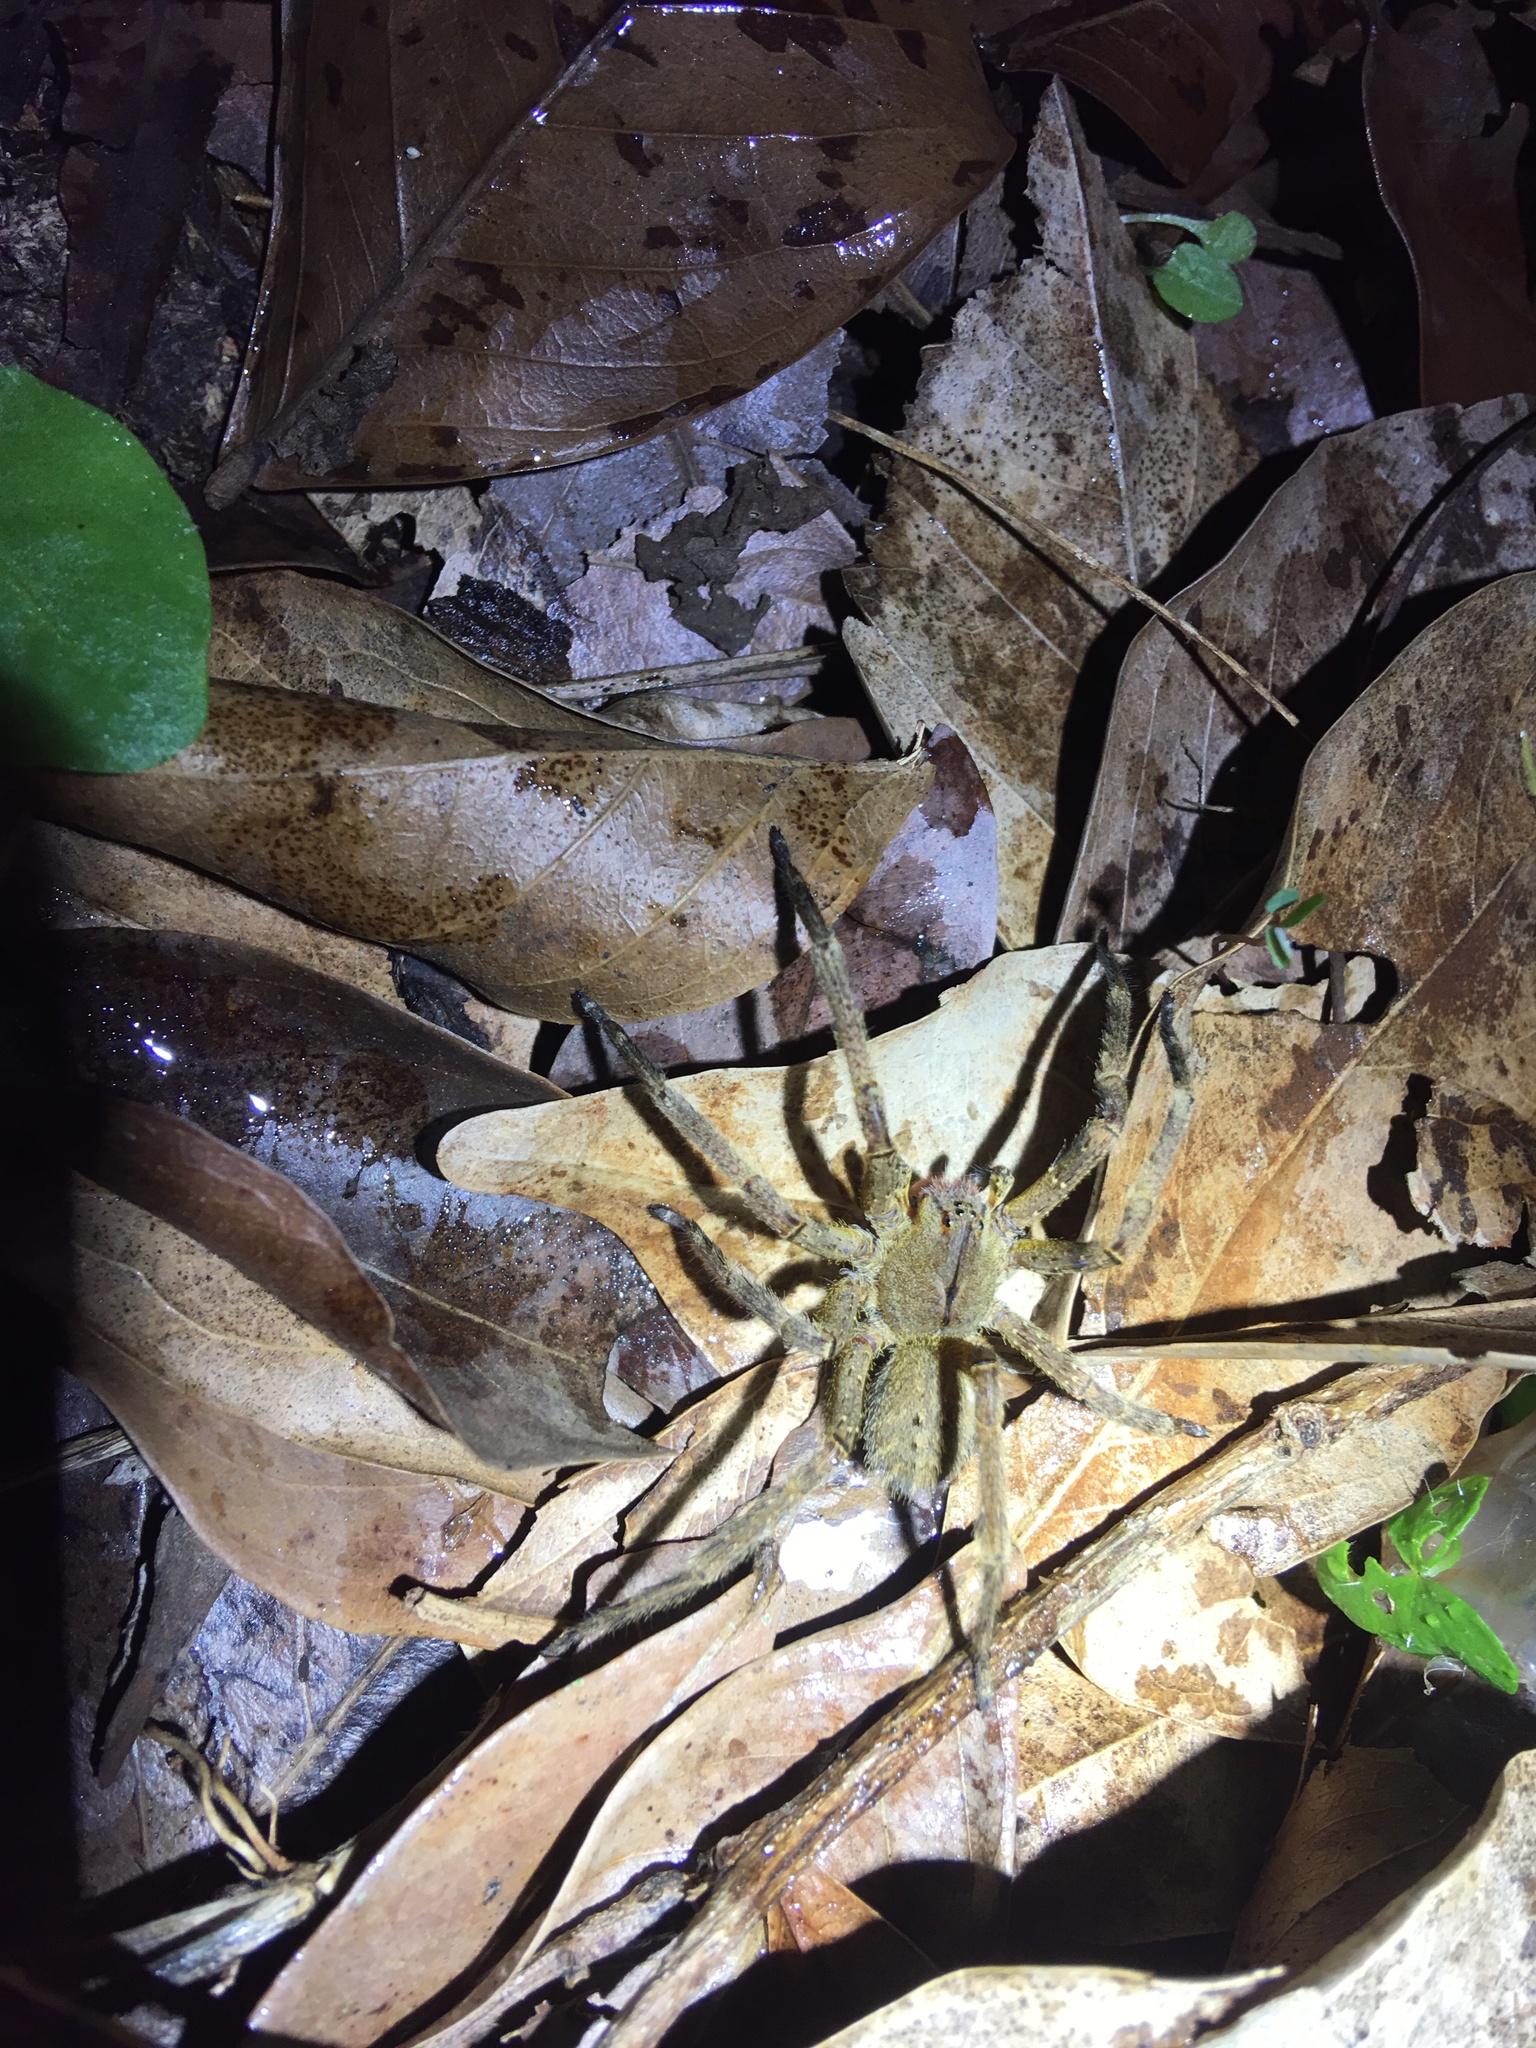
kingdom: Animalia
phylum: Arthropoda
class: Arachnida
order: Araneae
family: Ctenidae
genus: Phoneutria
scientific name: Phoneutria nigriventer
